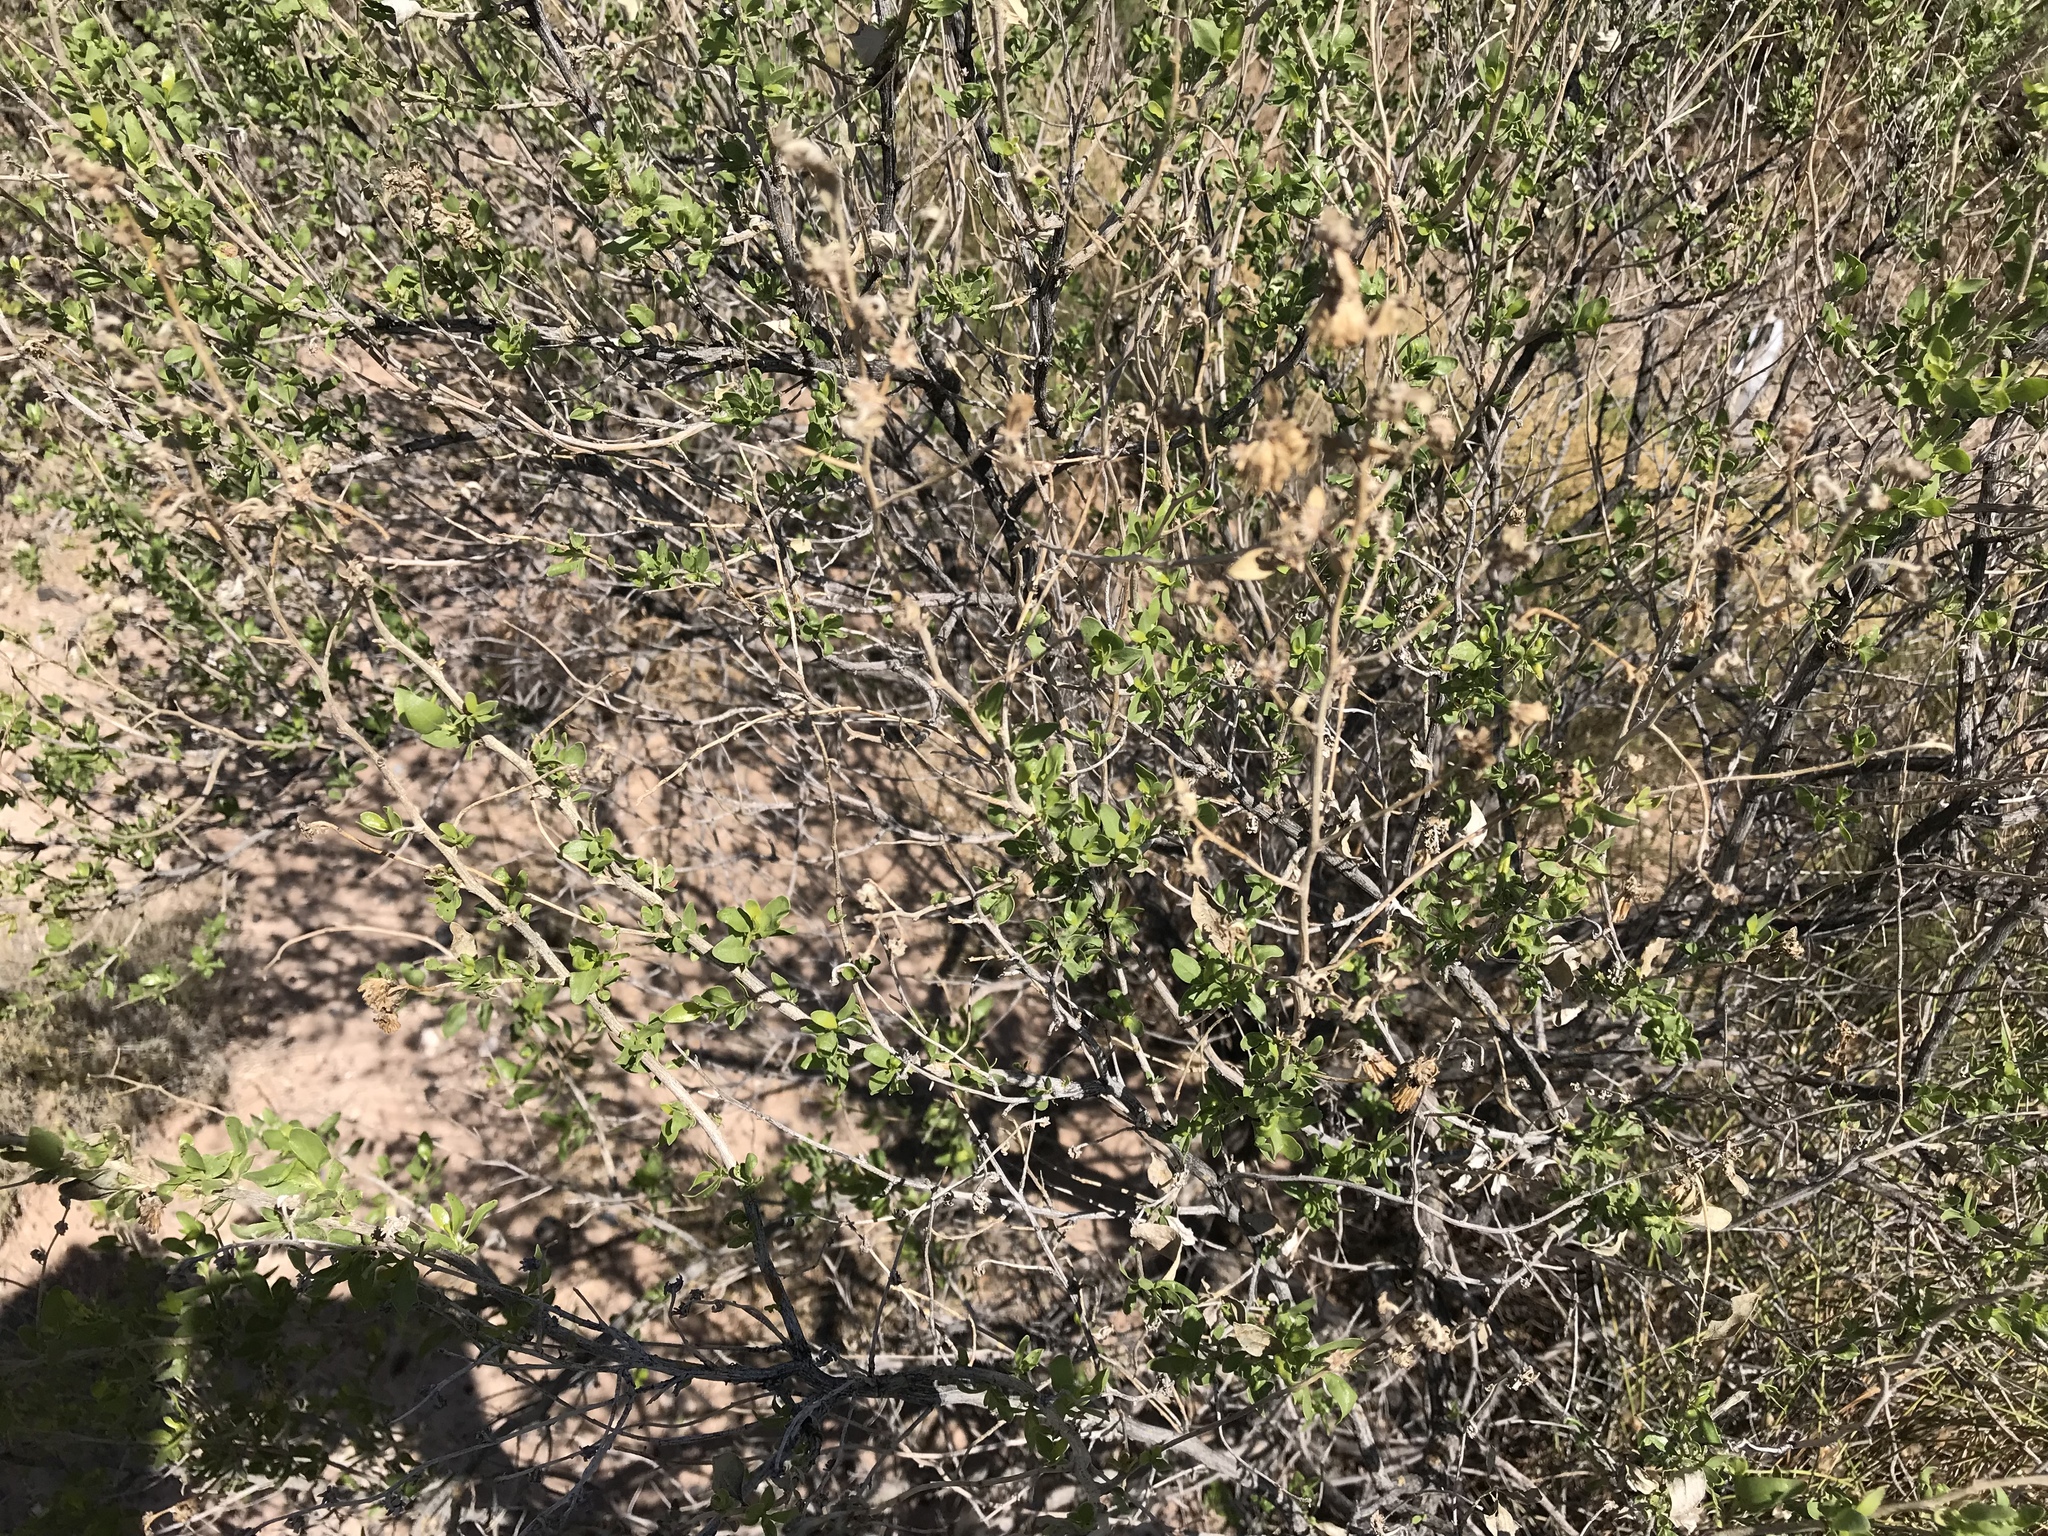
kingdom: Plantae
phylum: Tracheophyta
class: Magnoliopsida
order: Asterales
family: Asteraceae
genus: Flourensia
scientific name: Flourensia cernua
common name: Varnishbush
